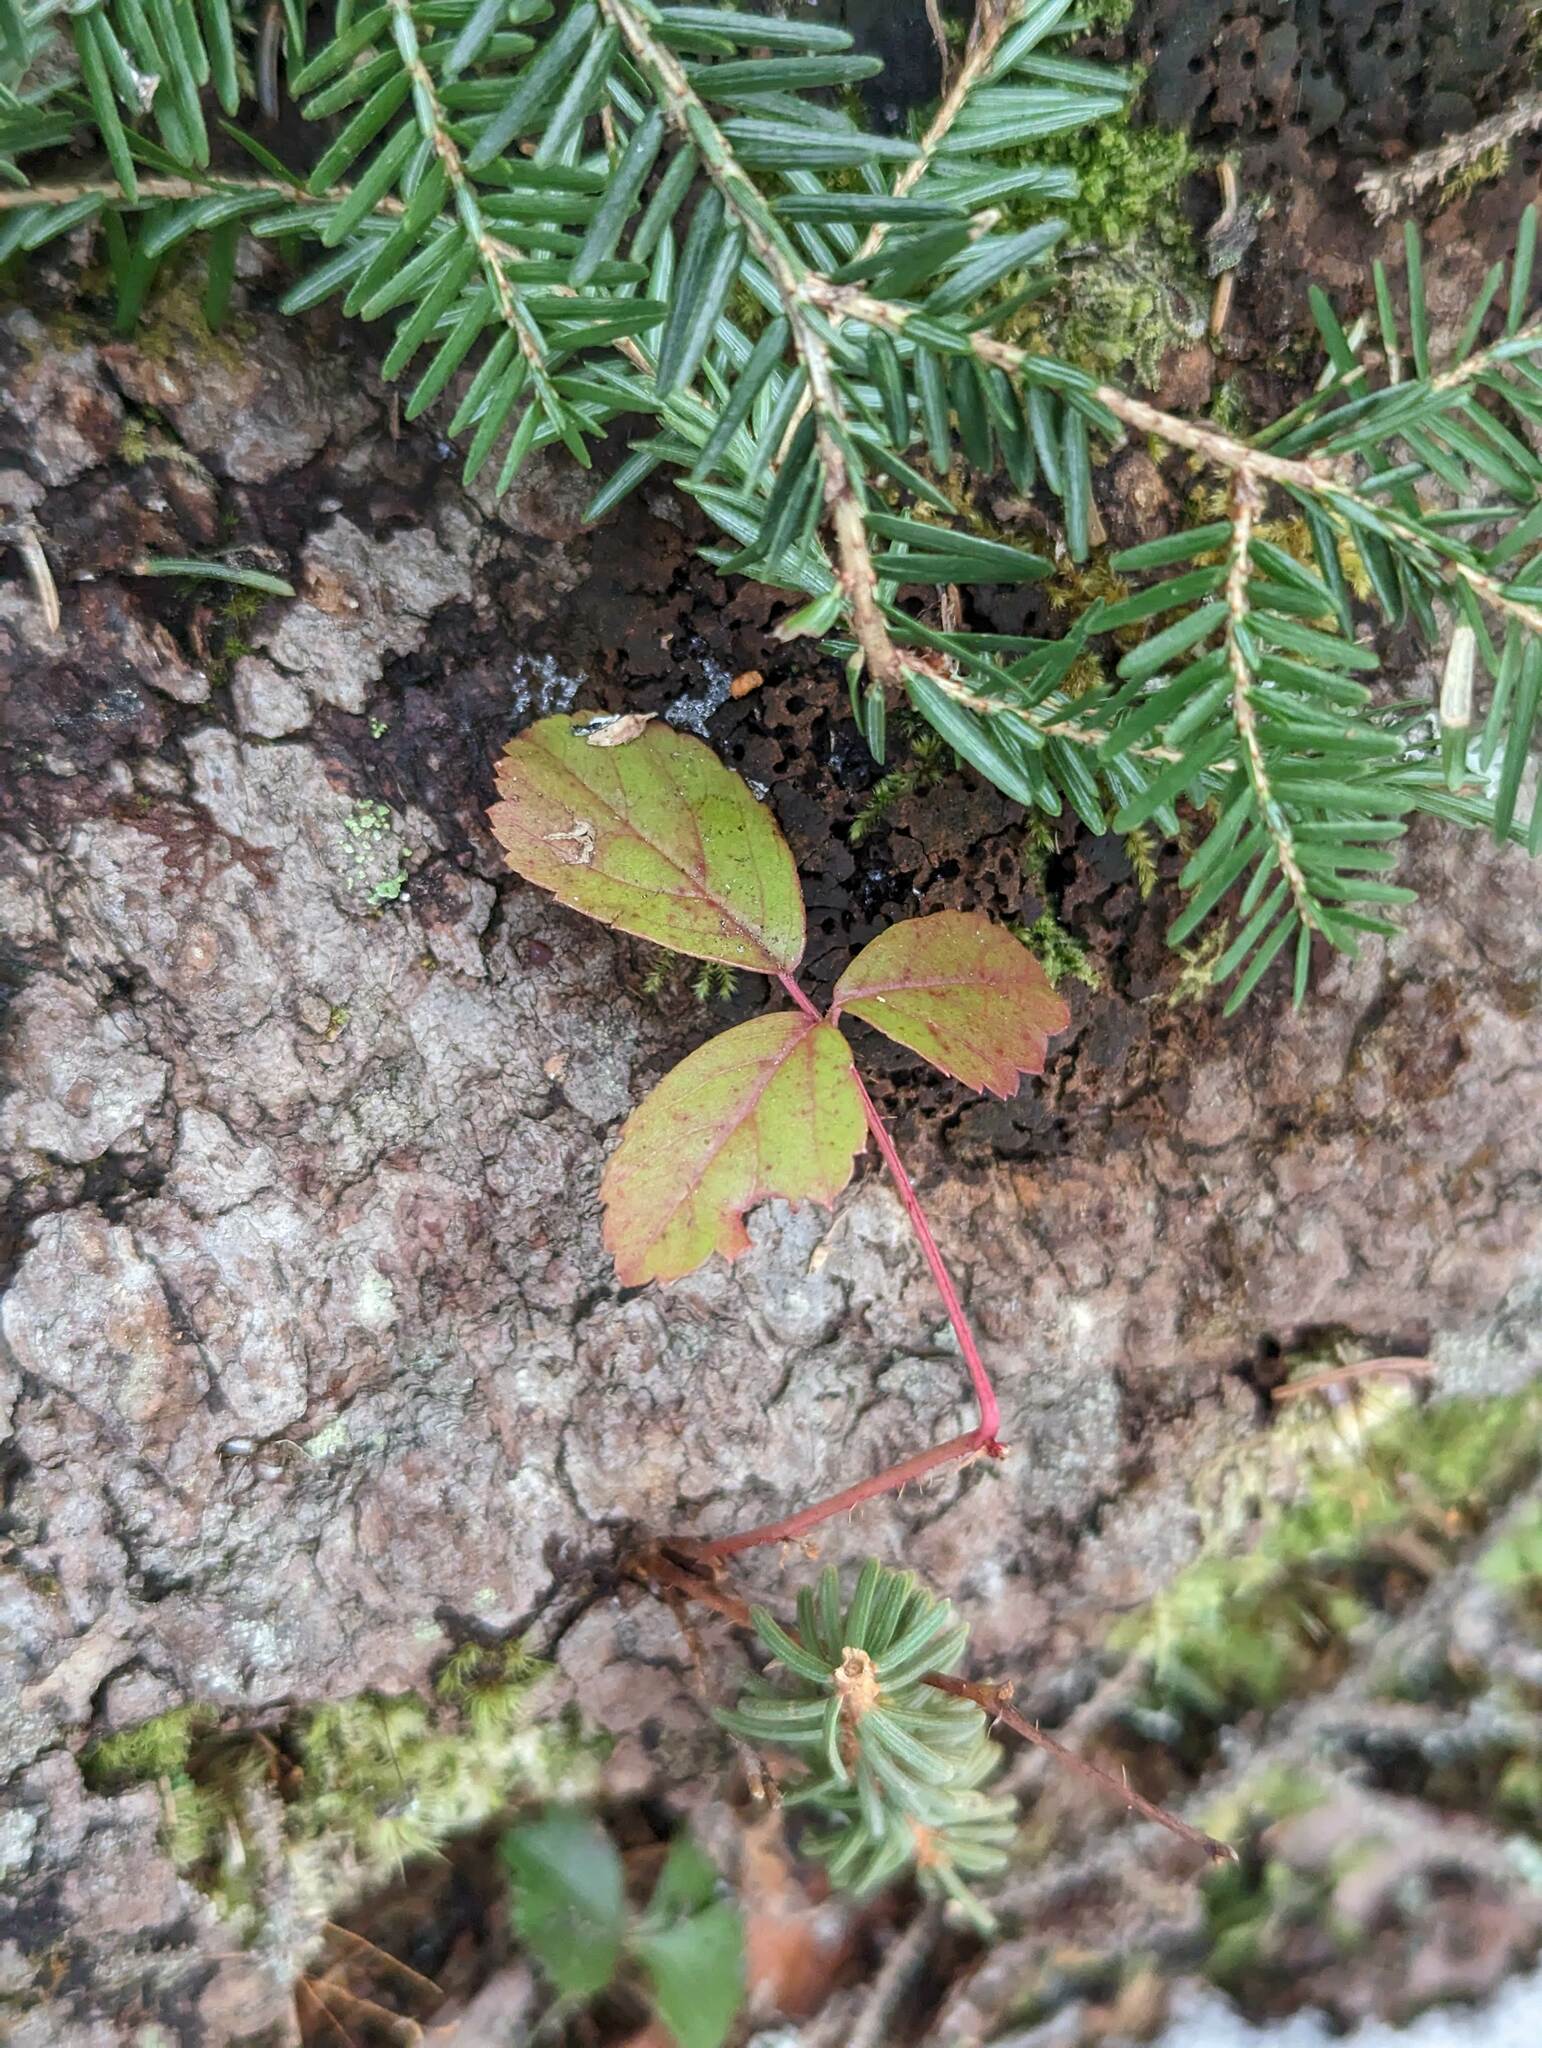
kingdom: Plantae
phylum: Tracheophyta
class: Magnoliopsida
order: Rosales
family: Rosaceae
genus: Rubus
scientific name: Rubus hispidus
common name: Running blackberry
